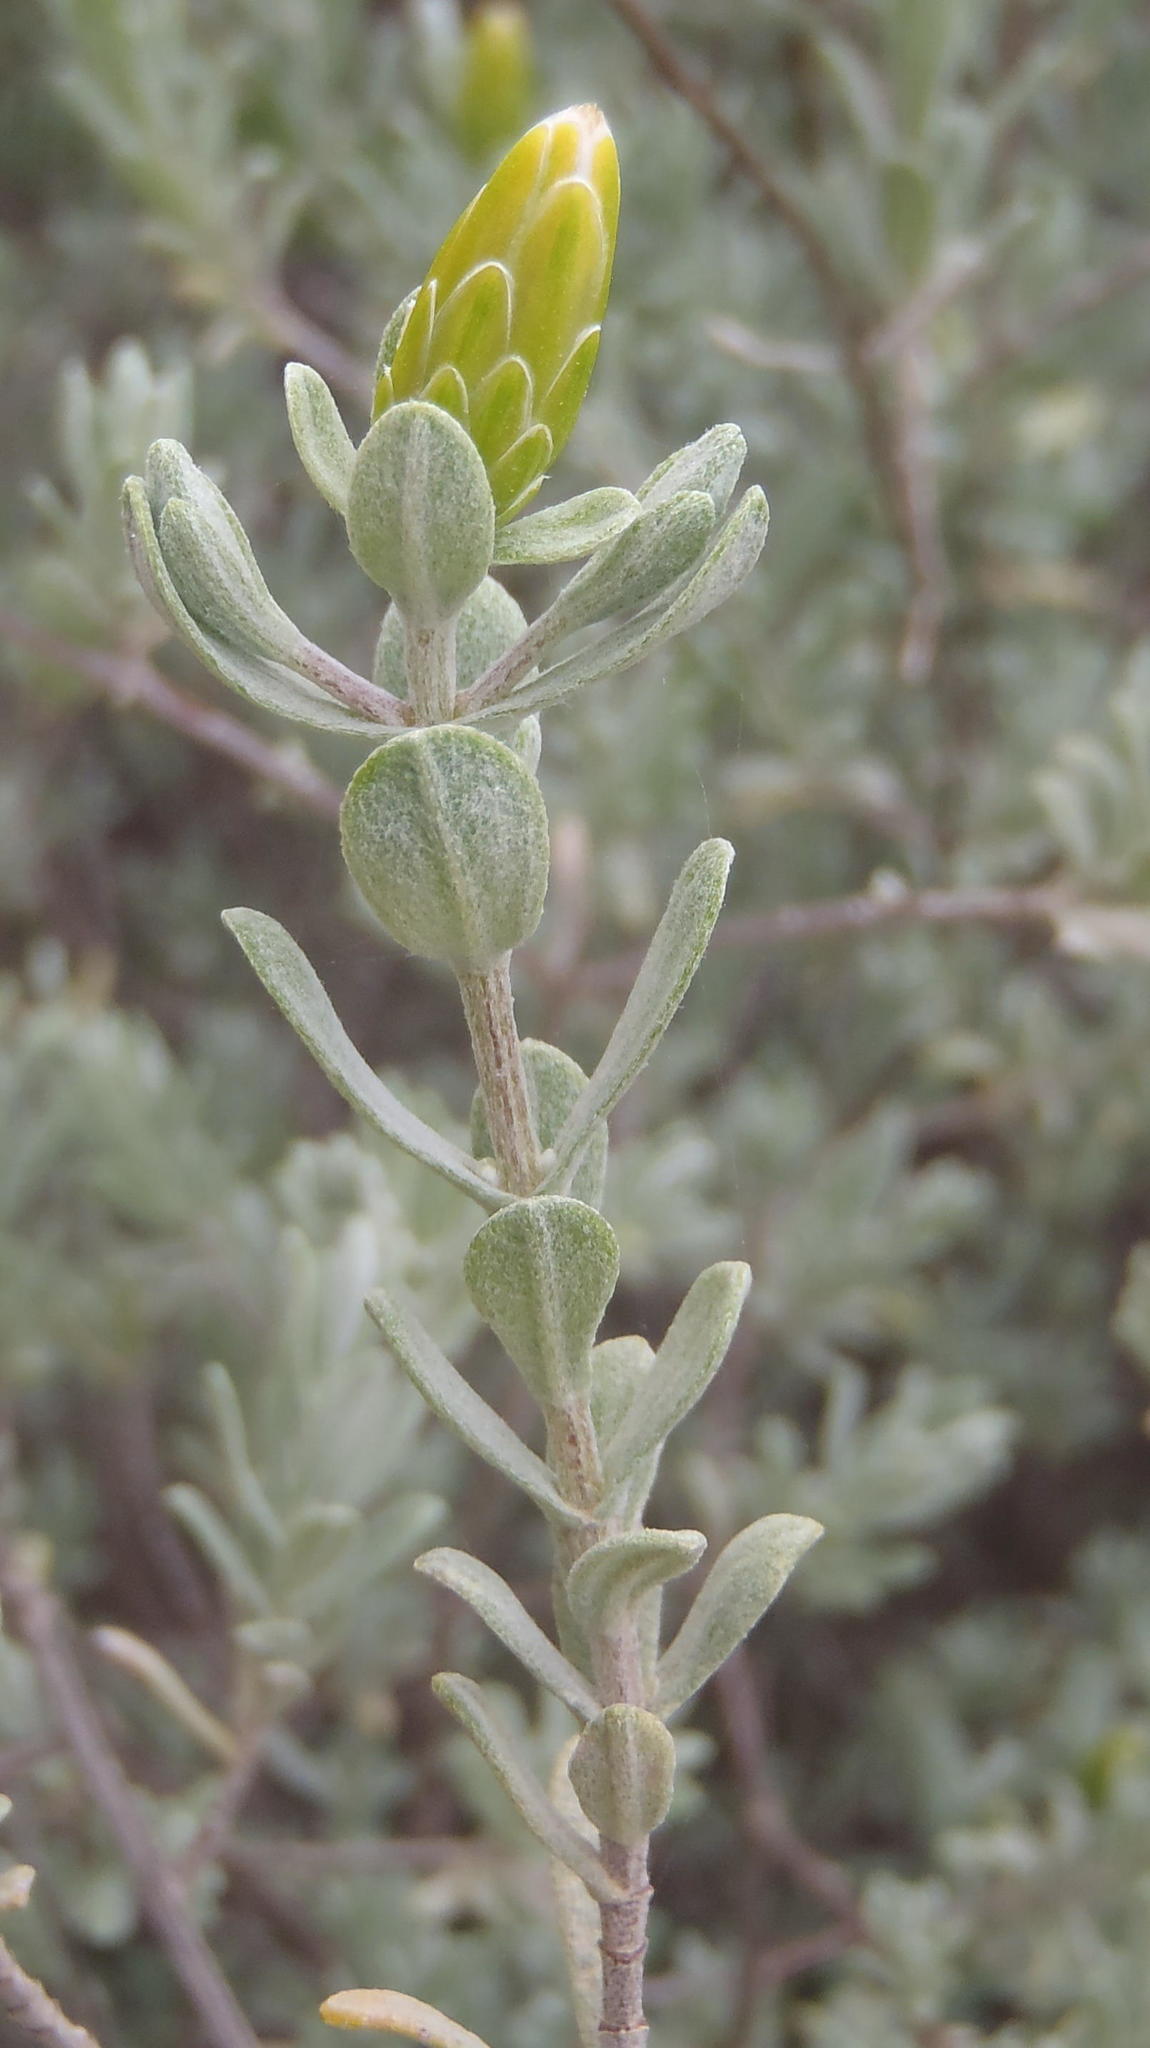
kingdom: Plantae
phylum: Tracheophyta
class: Magnoliopsida
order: Asterales
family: Asteraceae
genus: Pteronia
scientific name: Pteronia incana
